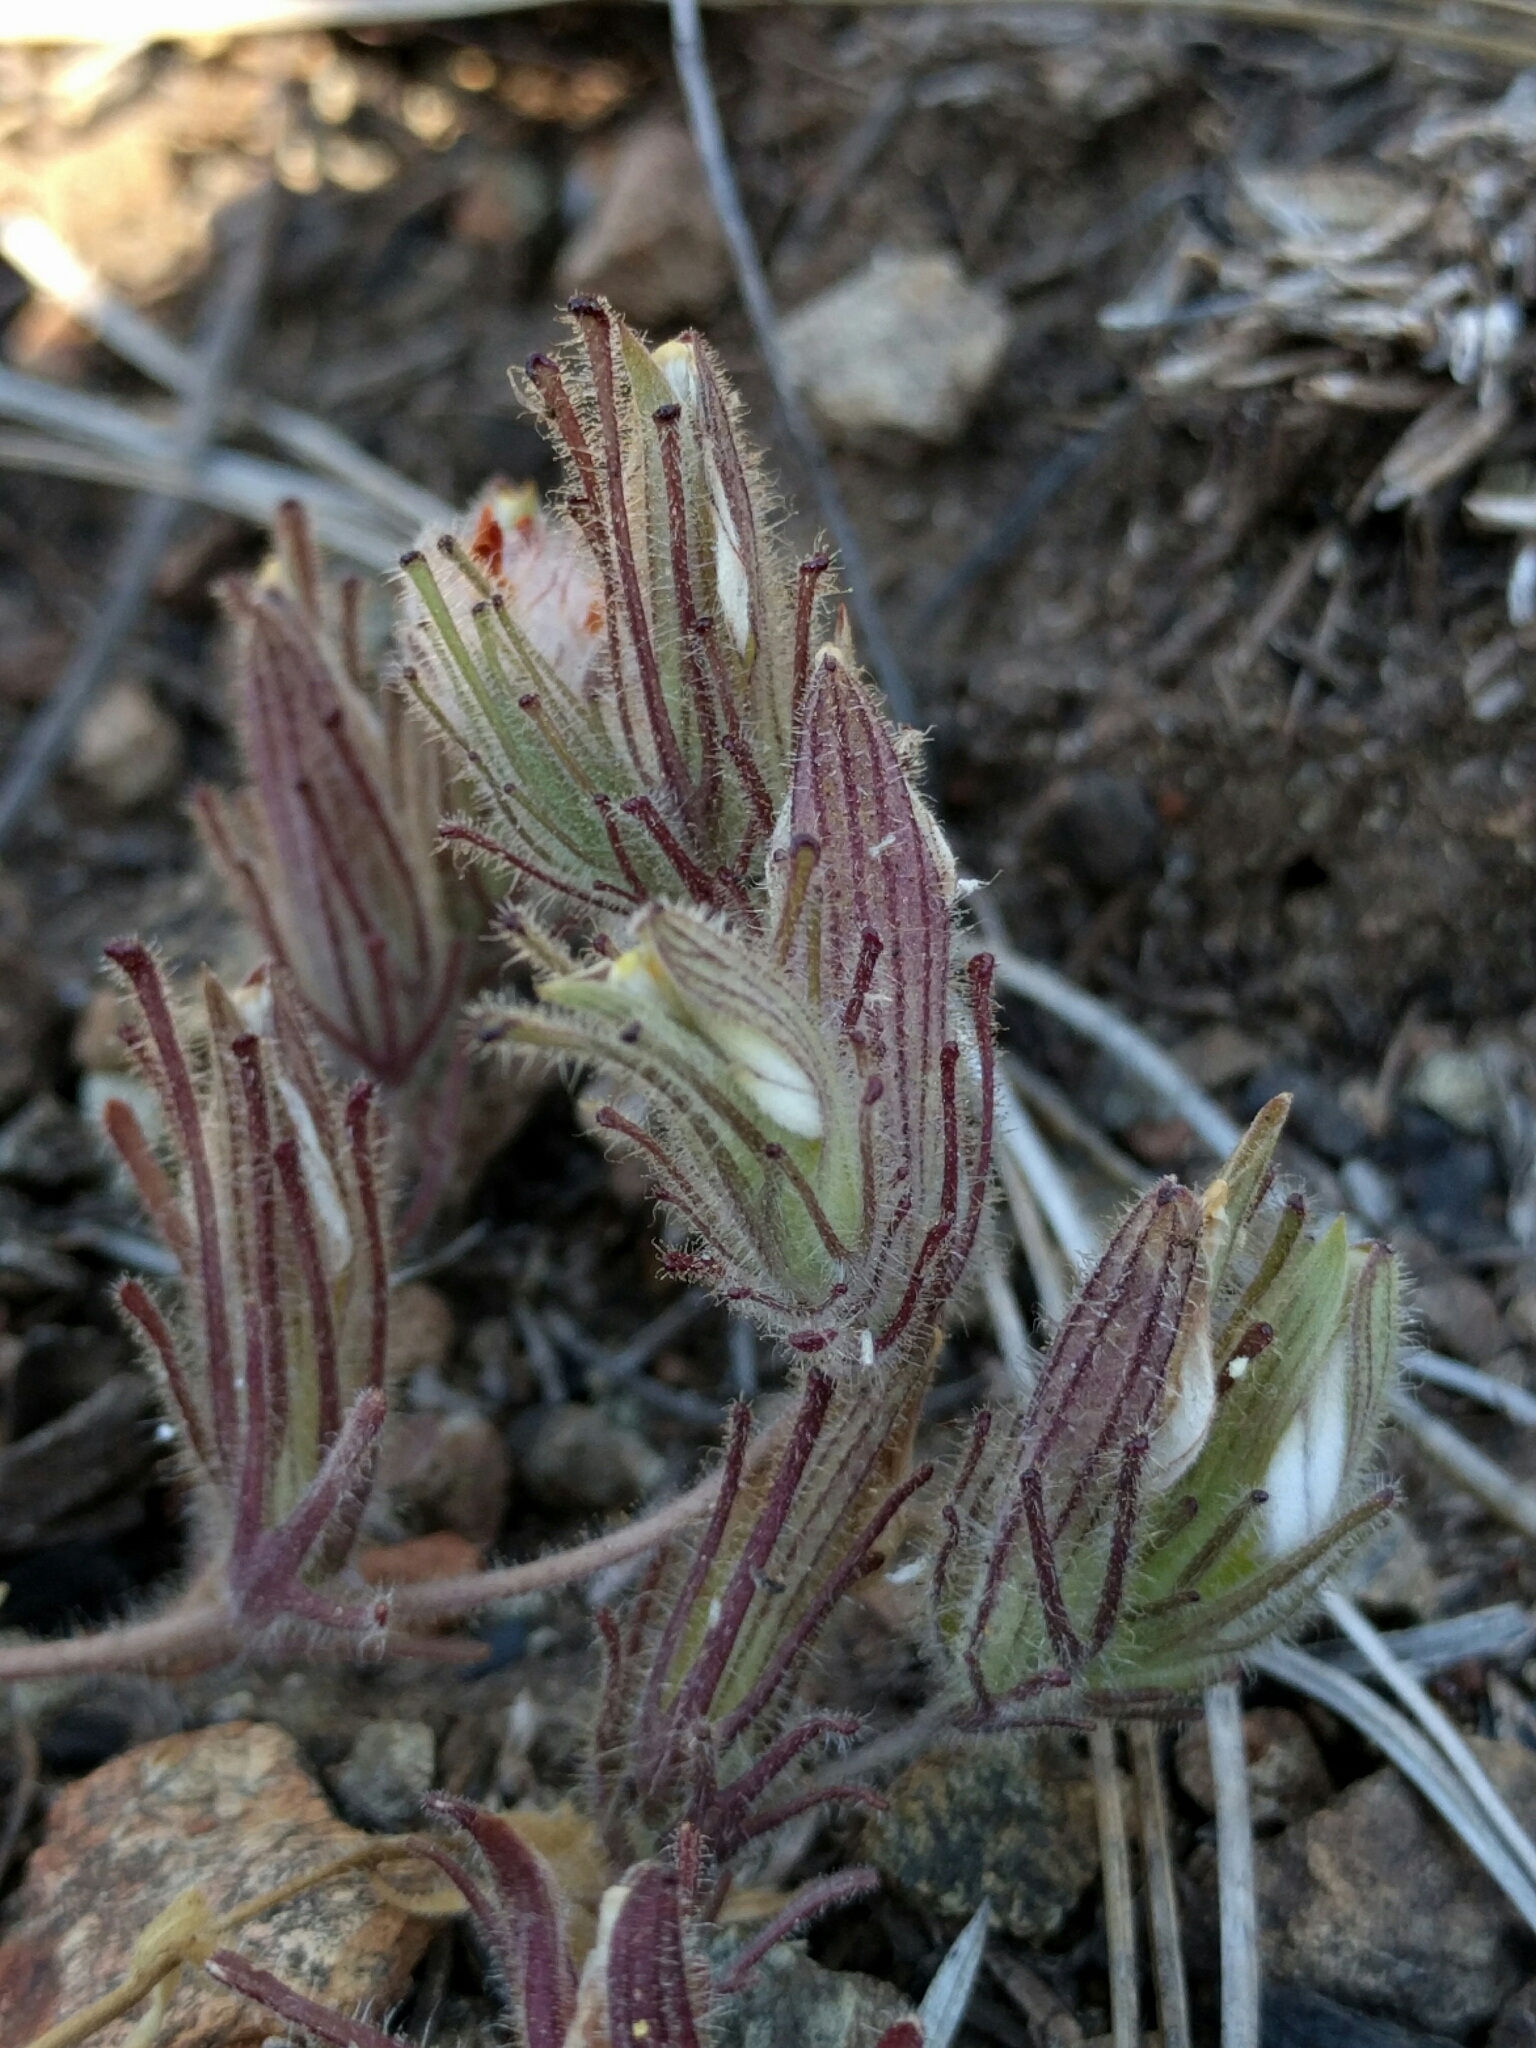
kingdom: Plantae
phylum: Tracheophyta
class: Magnoliopsida
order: Lamiales
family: Orobanchaceae
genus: Cordylanthus
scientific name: Cordylanthus nidularius
